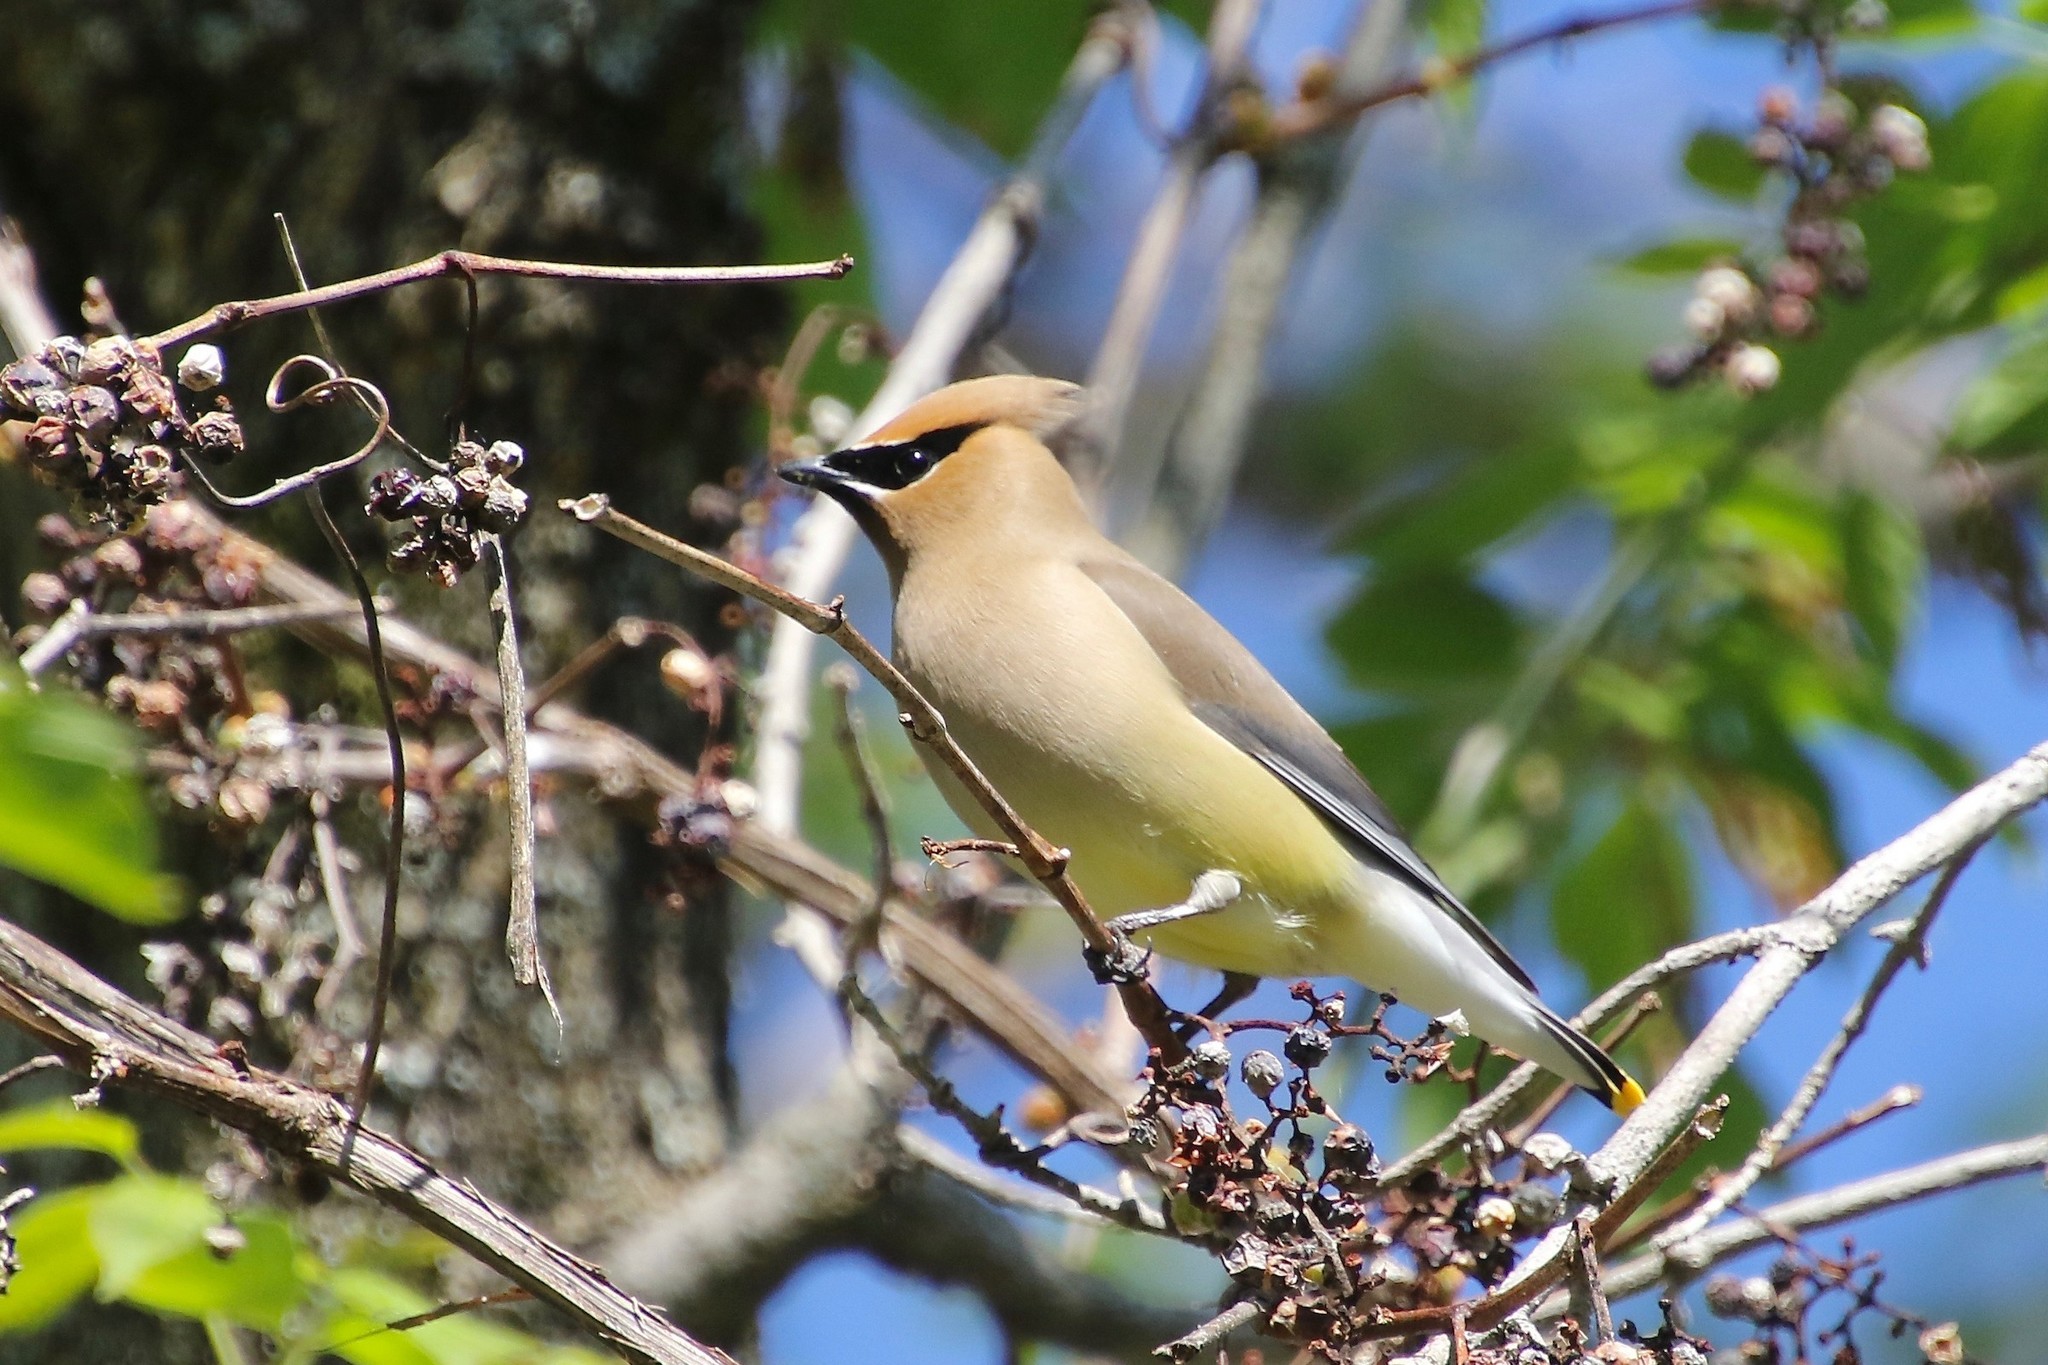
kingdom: Animalia
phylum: Chordata
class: Aves
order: Passeriformes
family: Bombycillidae
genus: Bombycilla
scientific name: Bombycilla cedrorum
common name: Cedar waxwing
